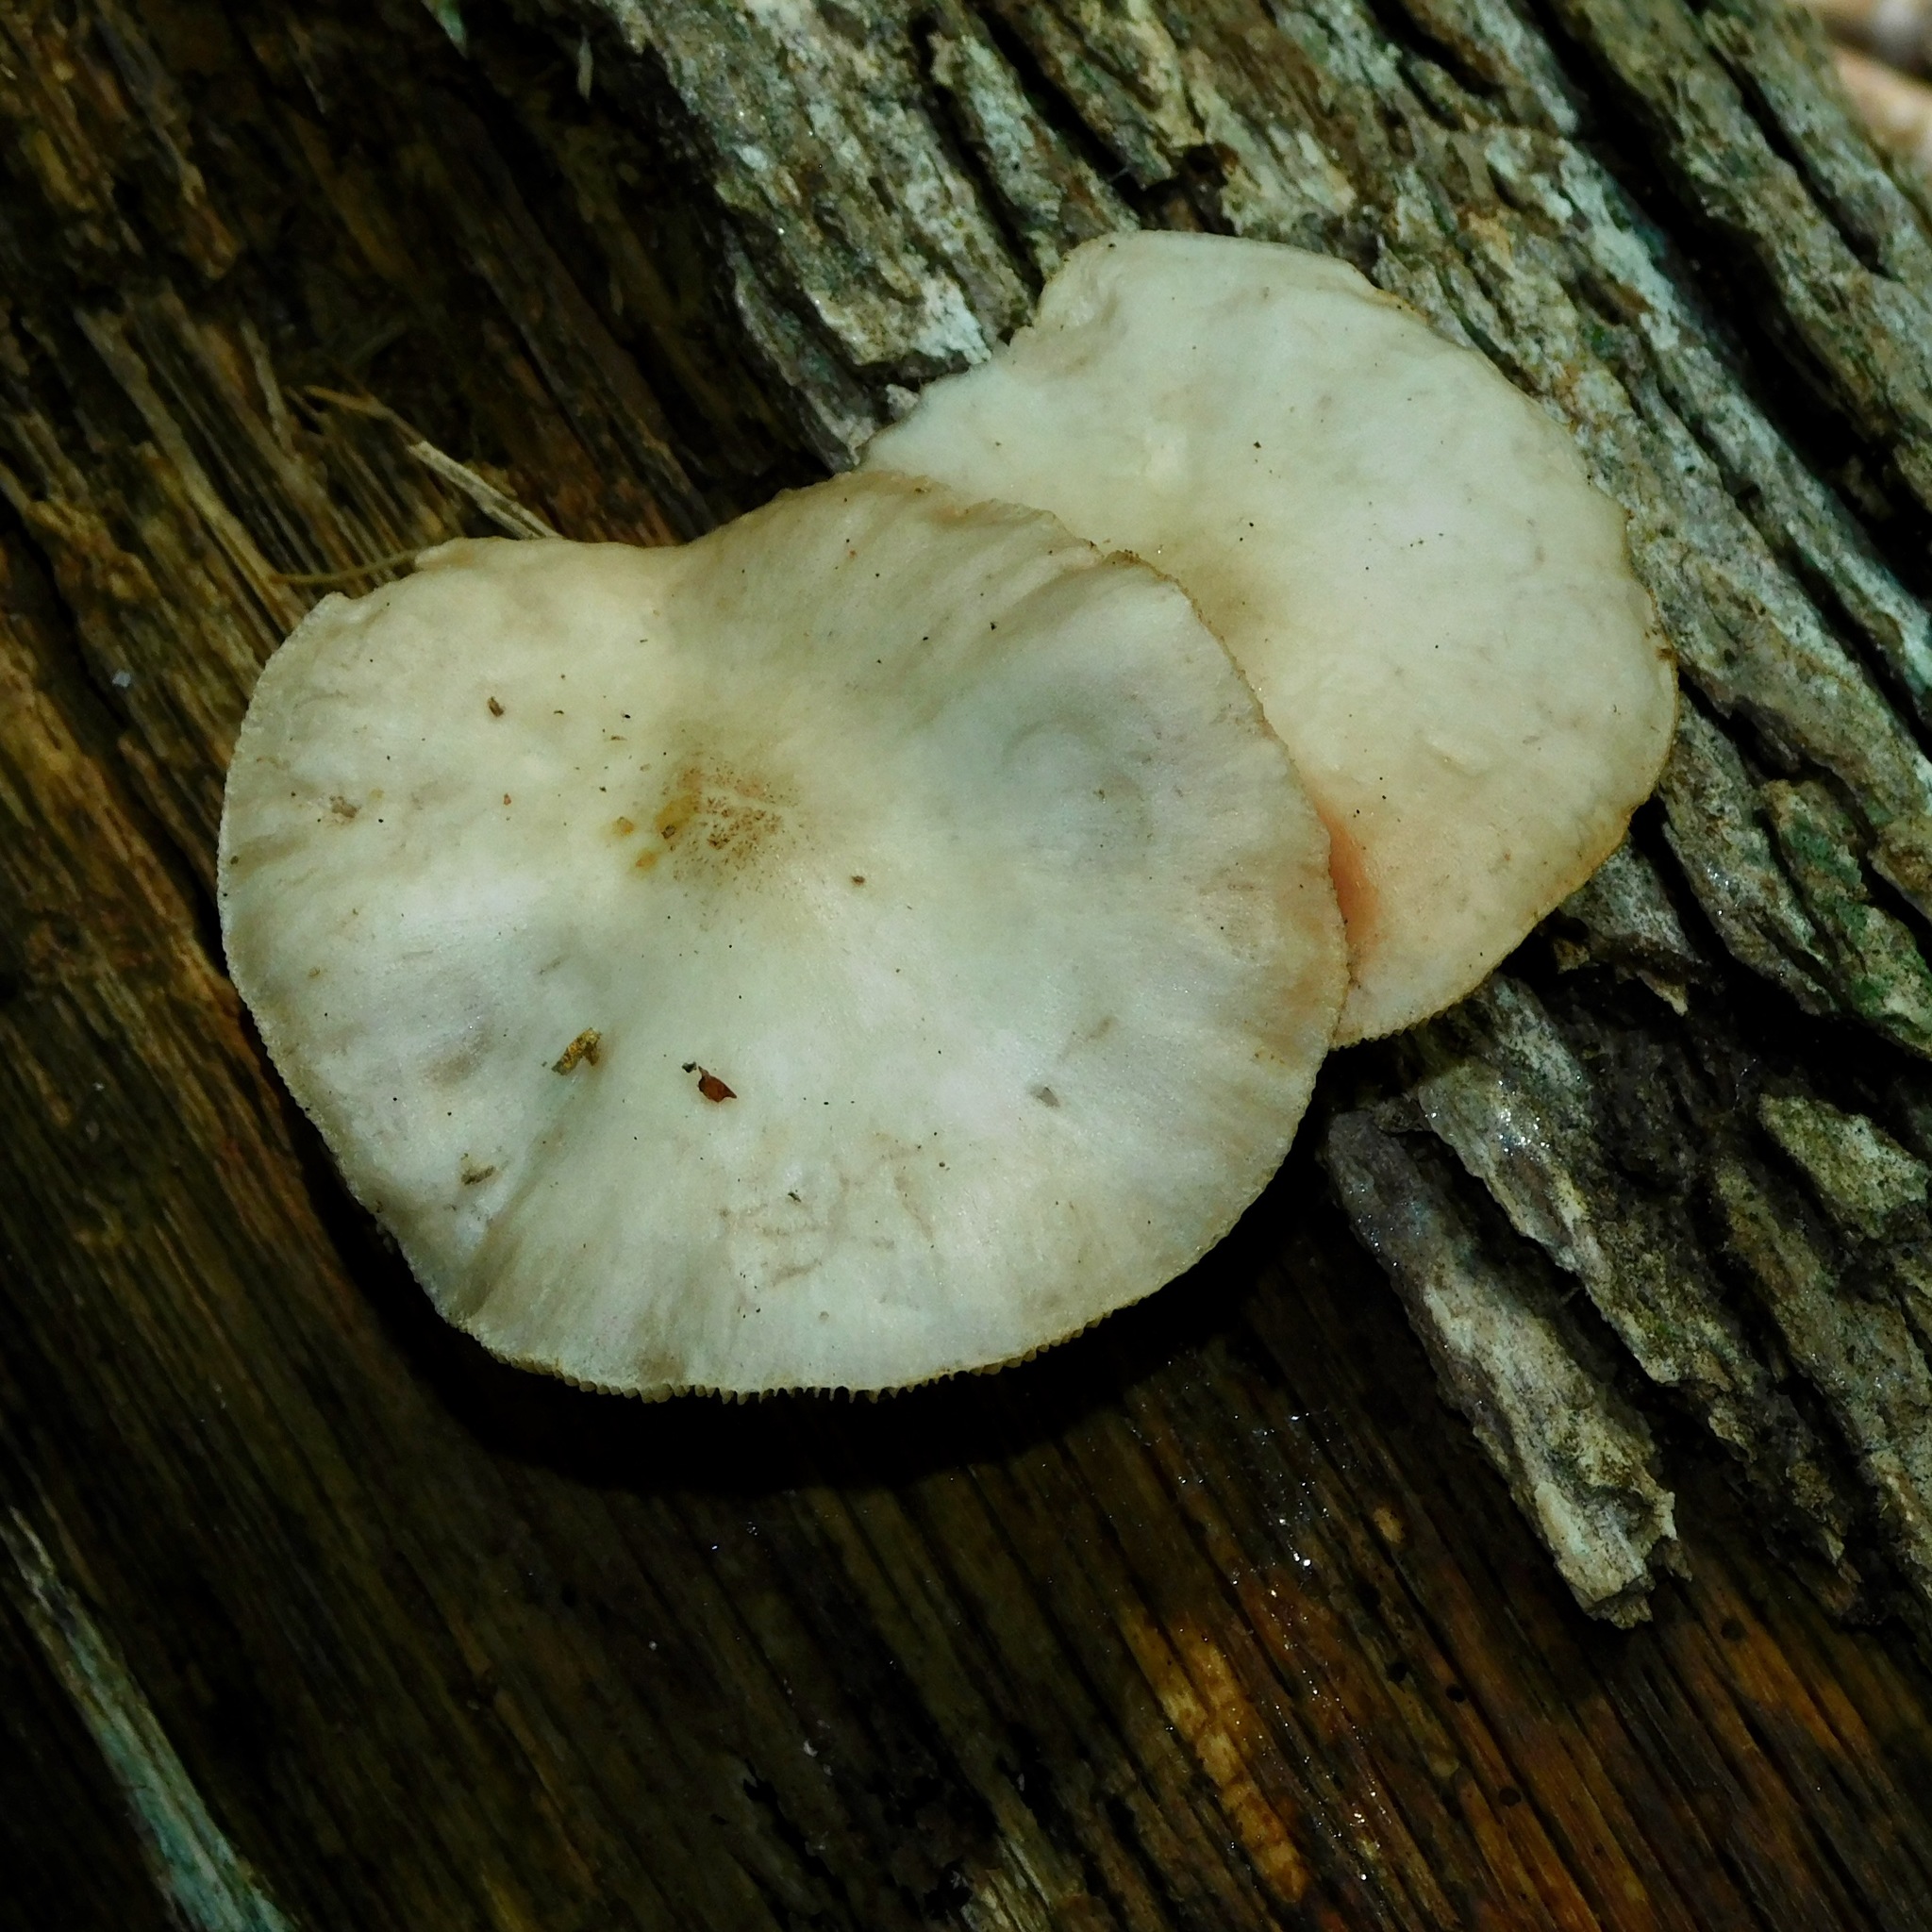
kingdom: Fungi
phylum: Basidiomycota
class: Agaricomycetes
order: Agaricales
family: Pluteaceae
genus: Pluteus
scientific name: Pluteus cervinus
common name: Deer shield
